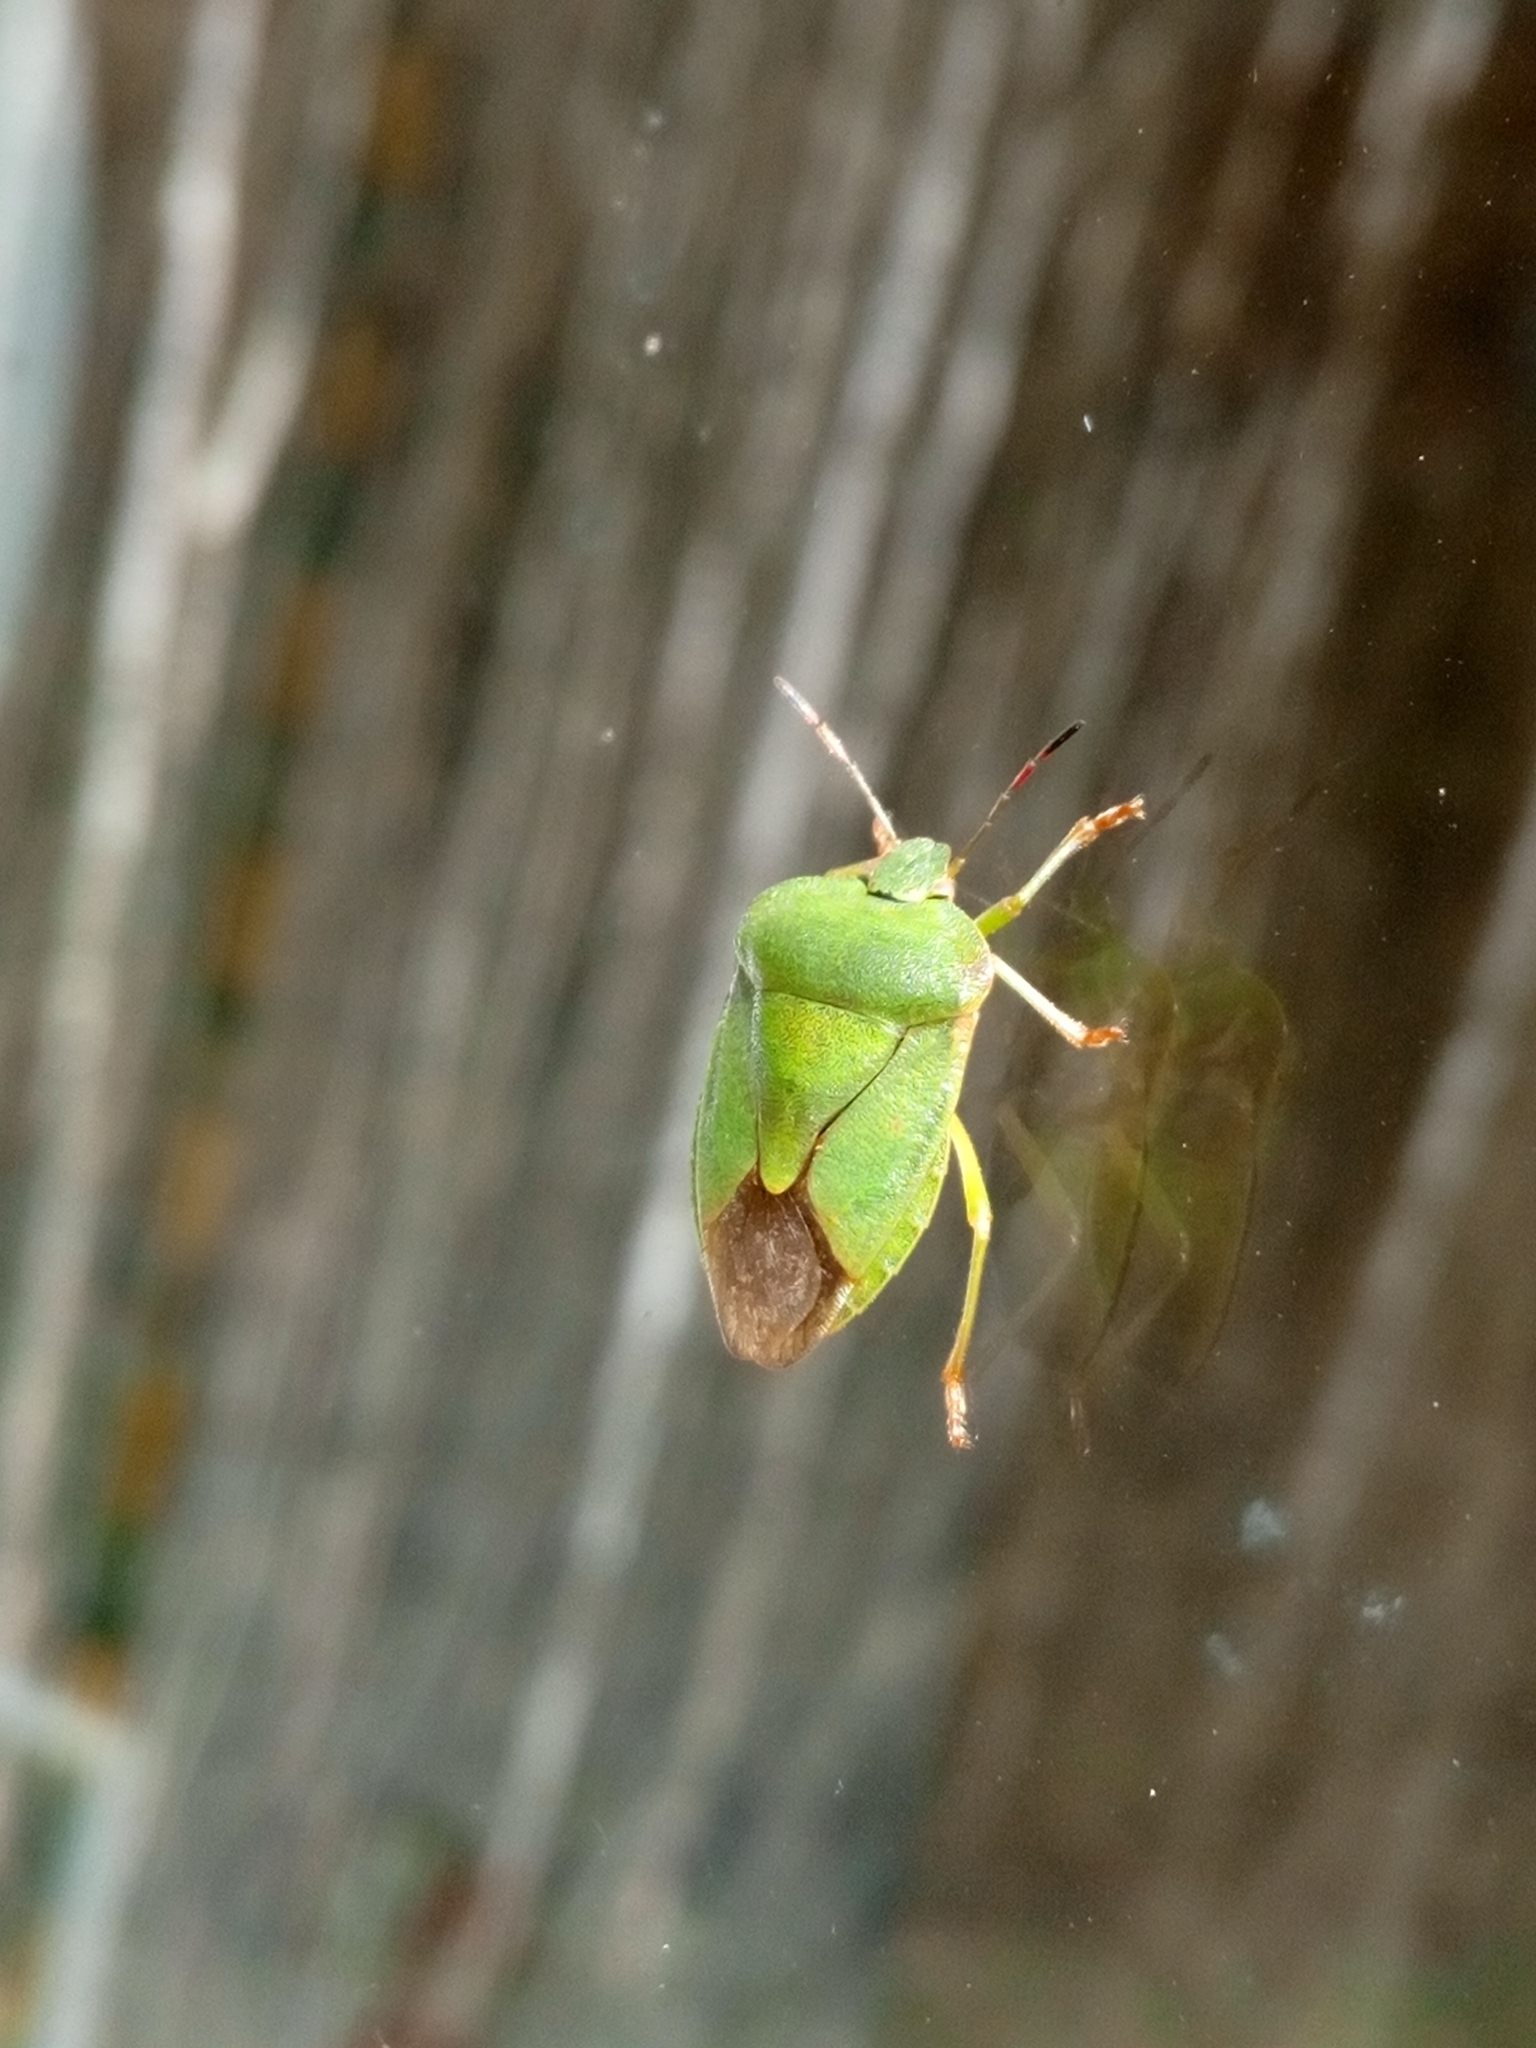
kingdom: Animalia
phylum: Arthropoda
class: Insecta
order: Hemiptera
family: Pentatomidae
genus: Palomena
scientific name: Palomena viridissima
